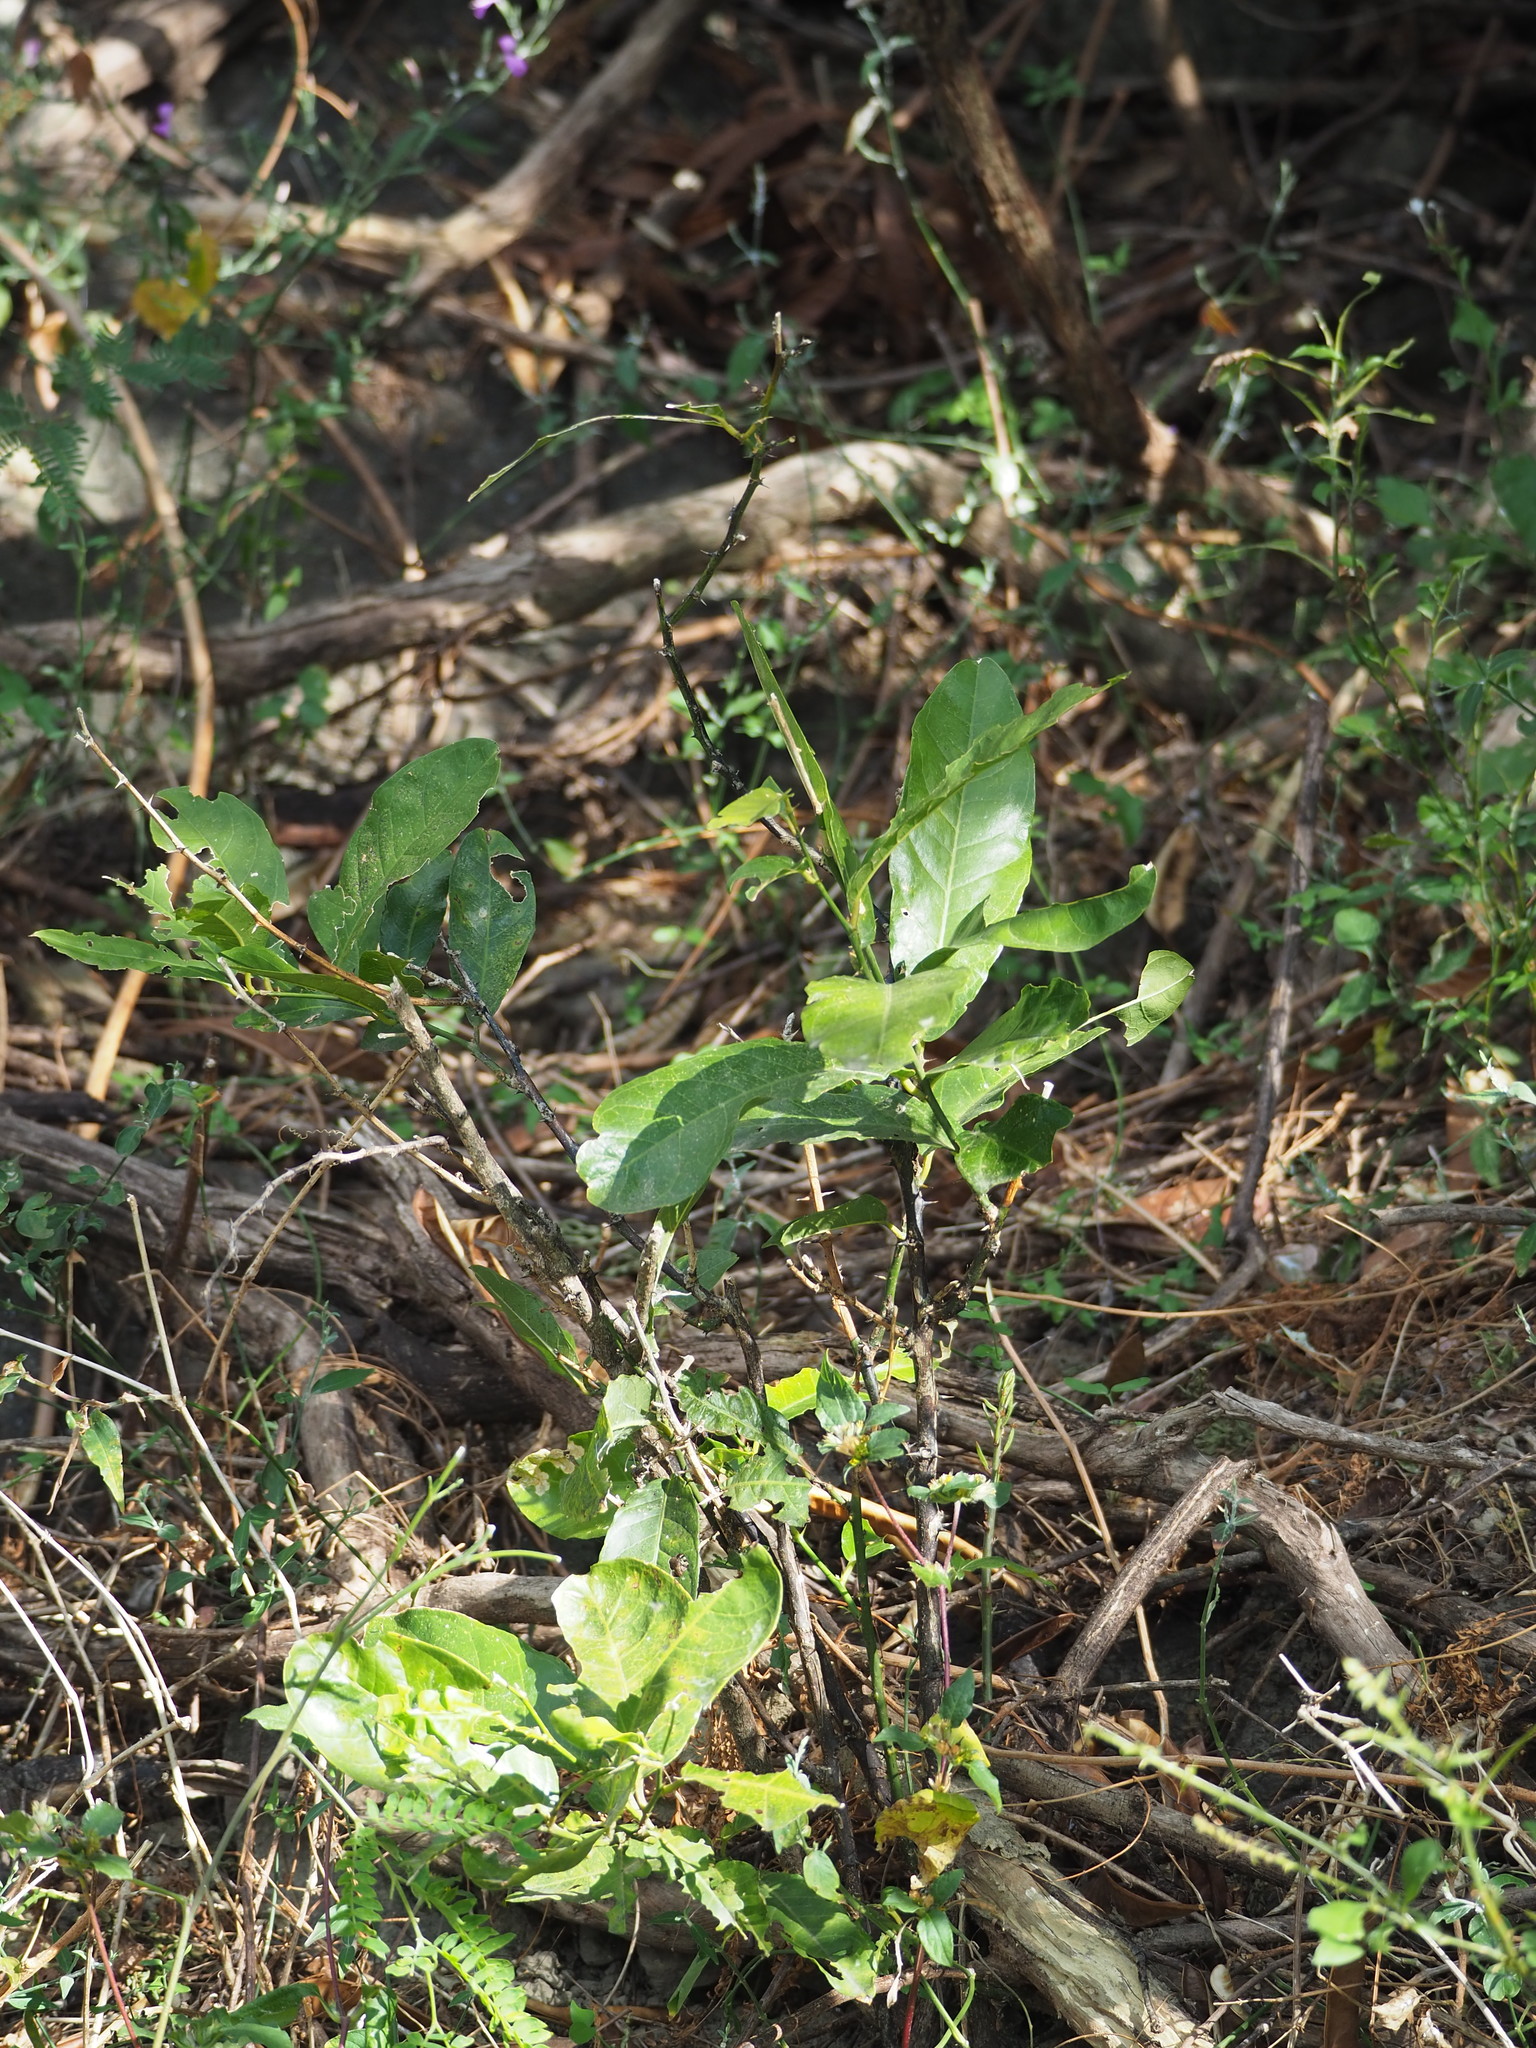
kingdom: Plantae
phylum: Tracheophyta
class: Magnoliopsida
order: Brassicales
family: Capparaceae
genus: Capparis
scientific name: Capparis henryi
